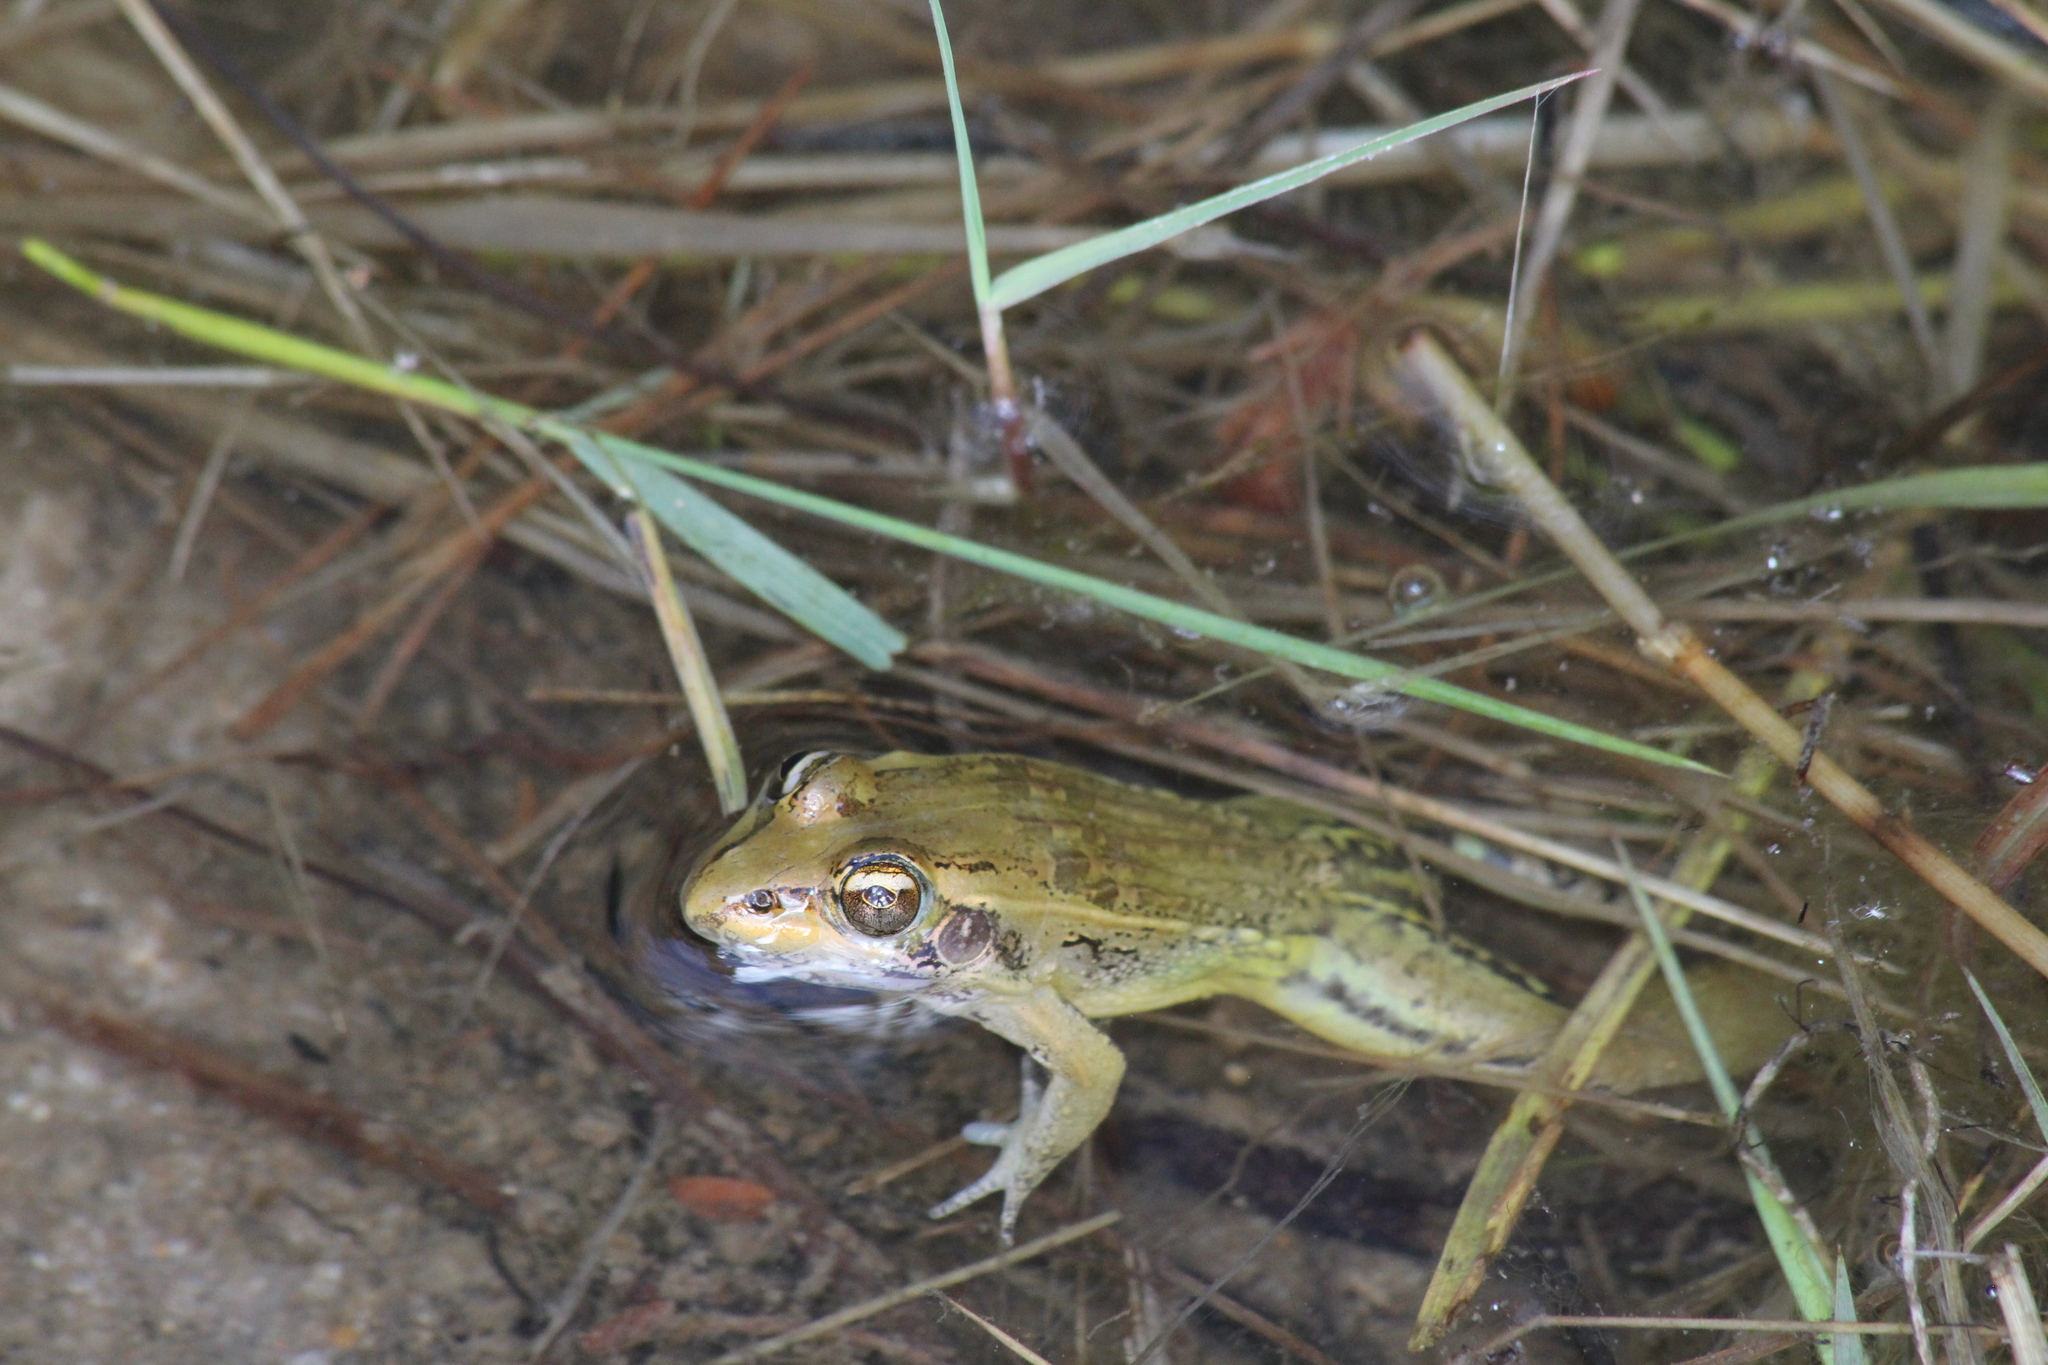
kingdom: Animalia
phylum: Chordata
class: Amphibia
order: Anura
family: Ptychadenidae
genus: Ptychadena
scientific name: Ptychadena mascareniensis
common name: Mascarene grass frog
